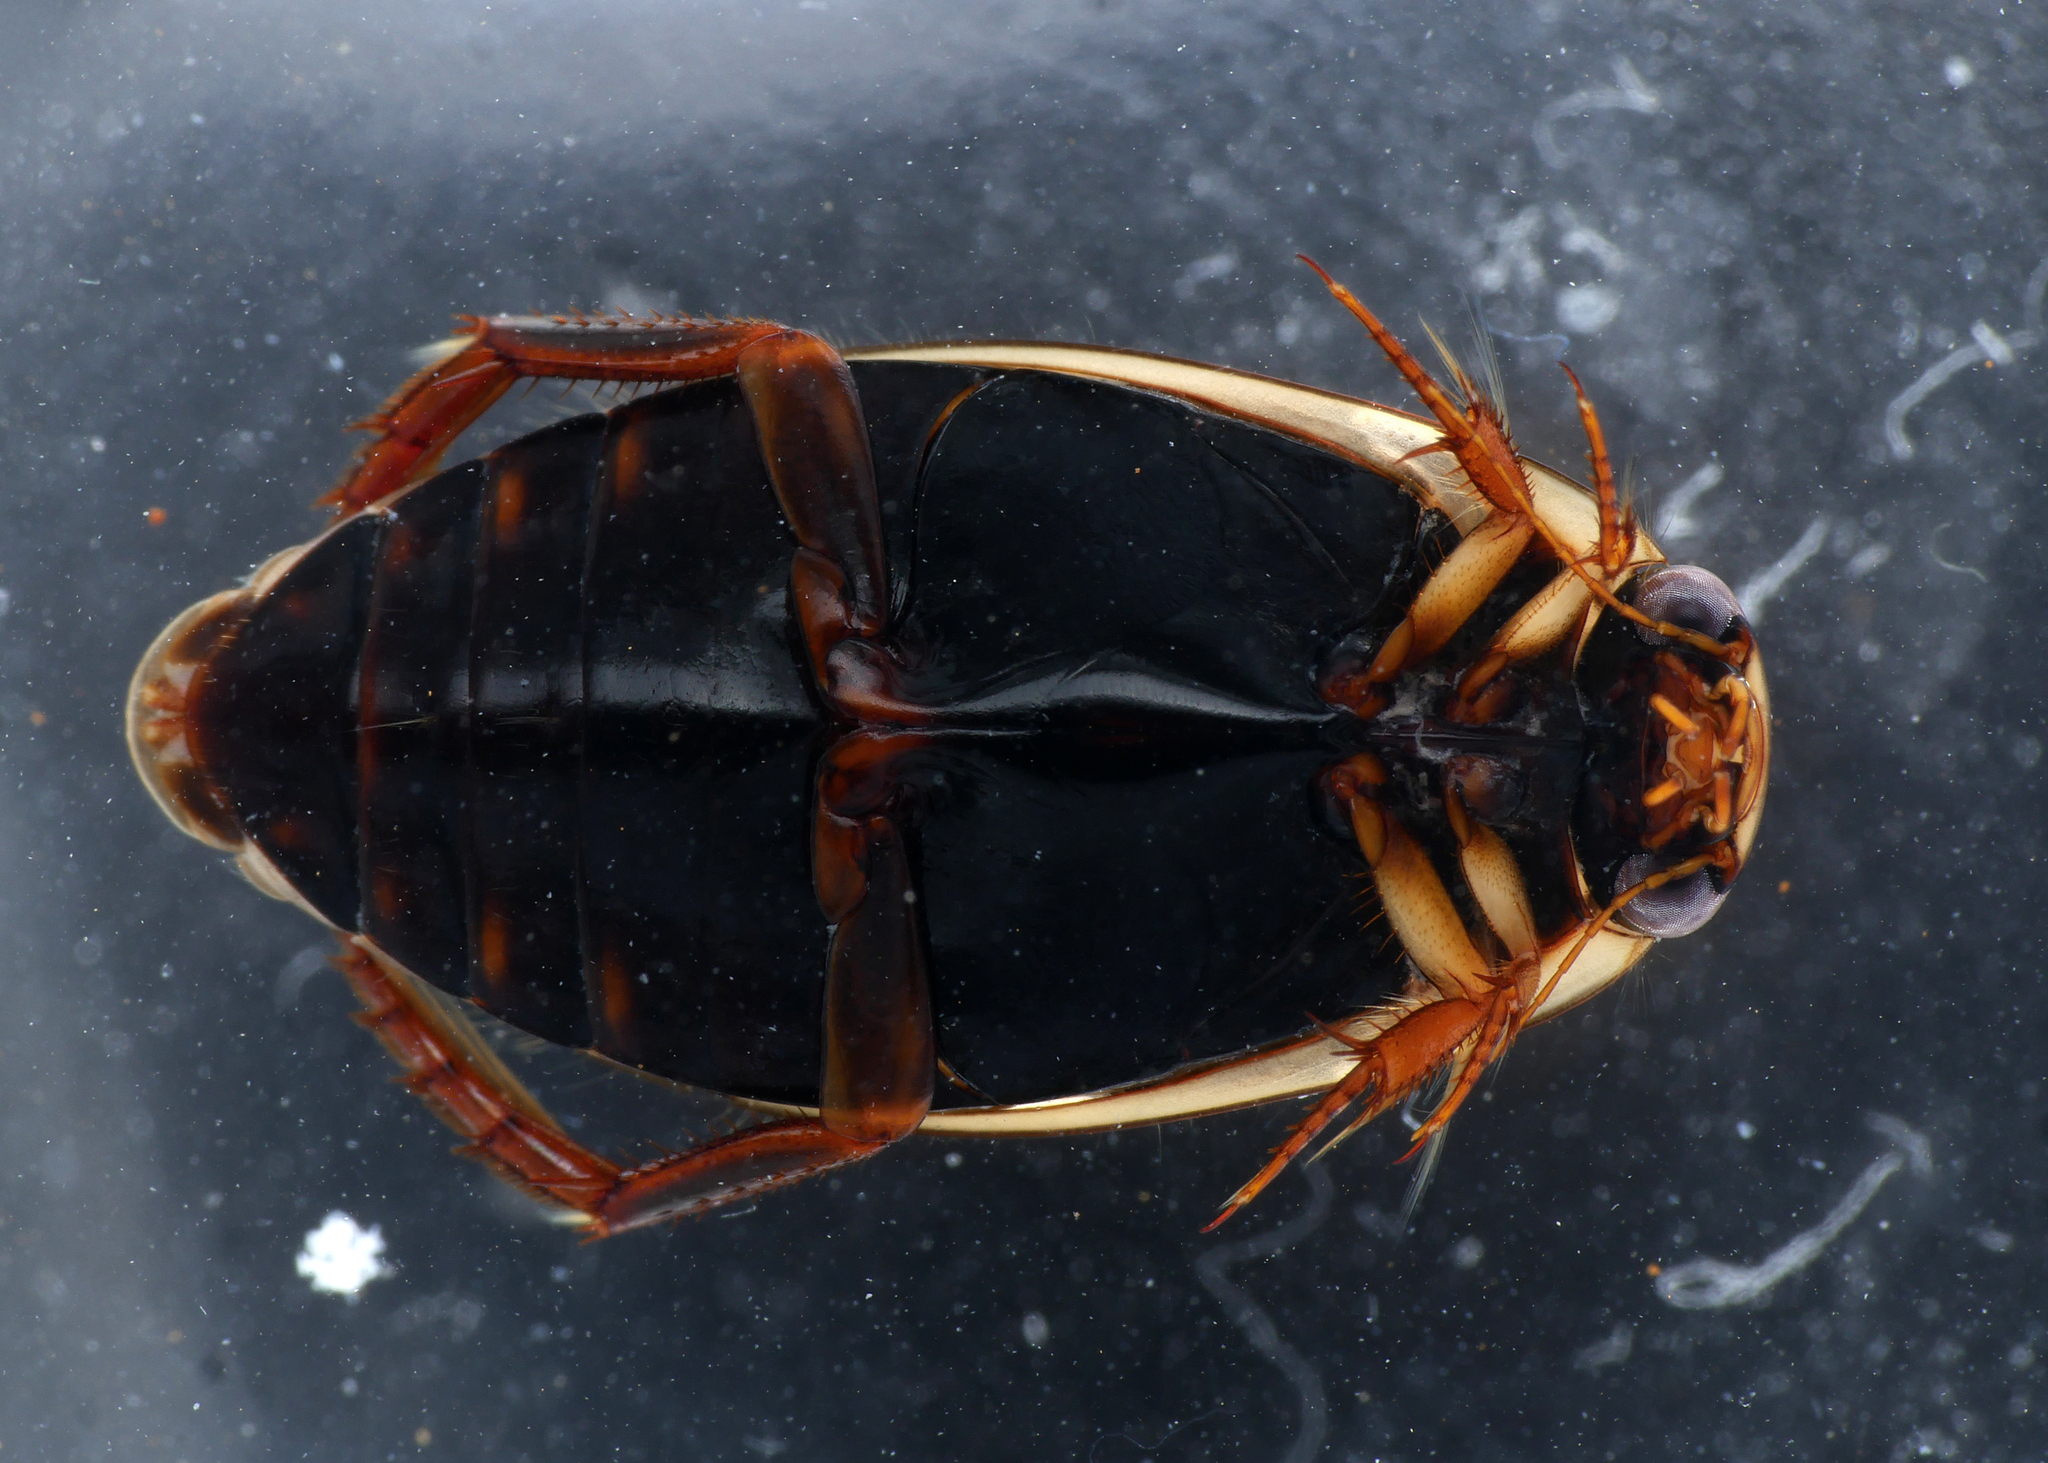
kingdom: Animalia
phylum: Arthropoda
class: Insecta
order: Coleoptera
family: Dytiscidae
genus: Rhantus
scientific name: Rhantus suturalis
